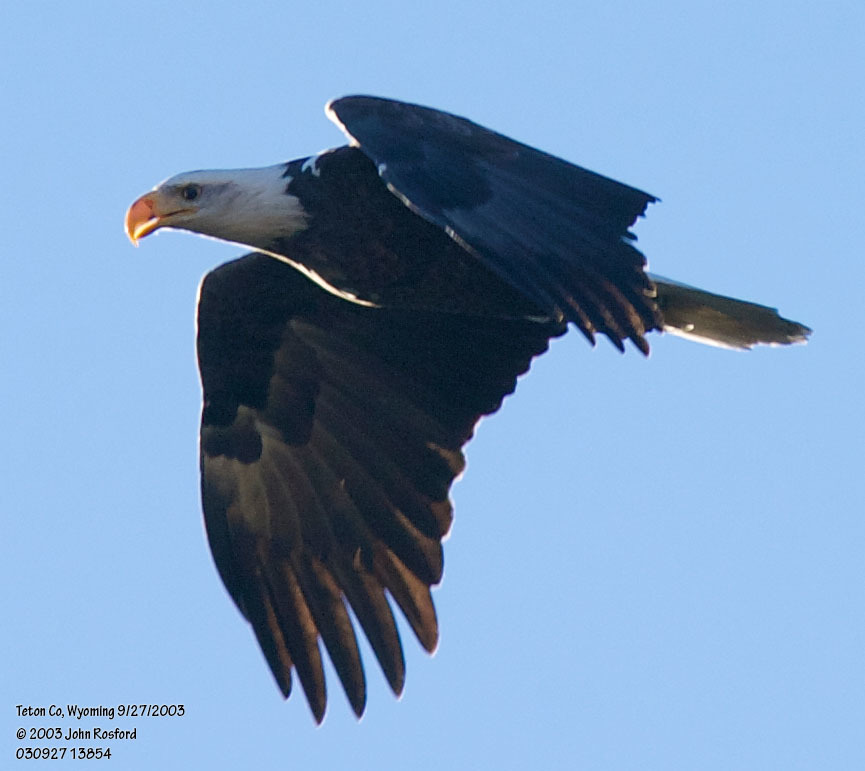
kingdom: Animalia
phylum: Chordata
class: Aves
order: Accipitriformes
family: Accipitridae
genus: Haliaeetus
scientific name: Haliaeetus leucocephalus
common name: Bald eagle
